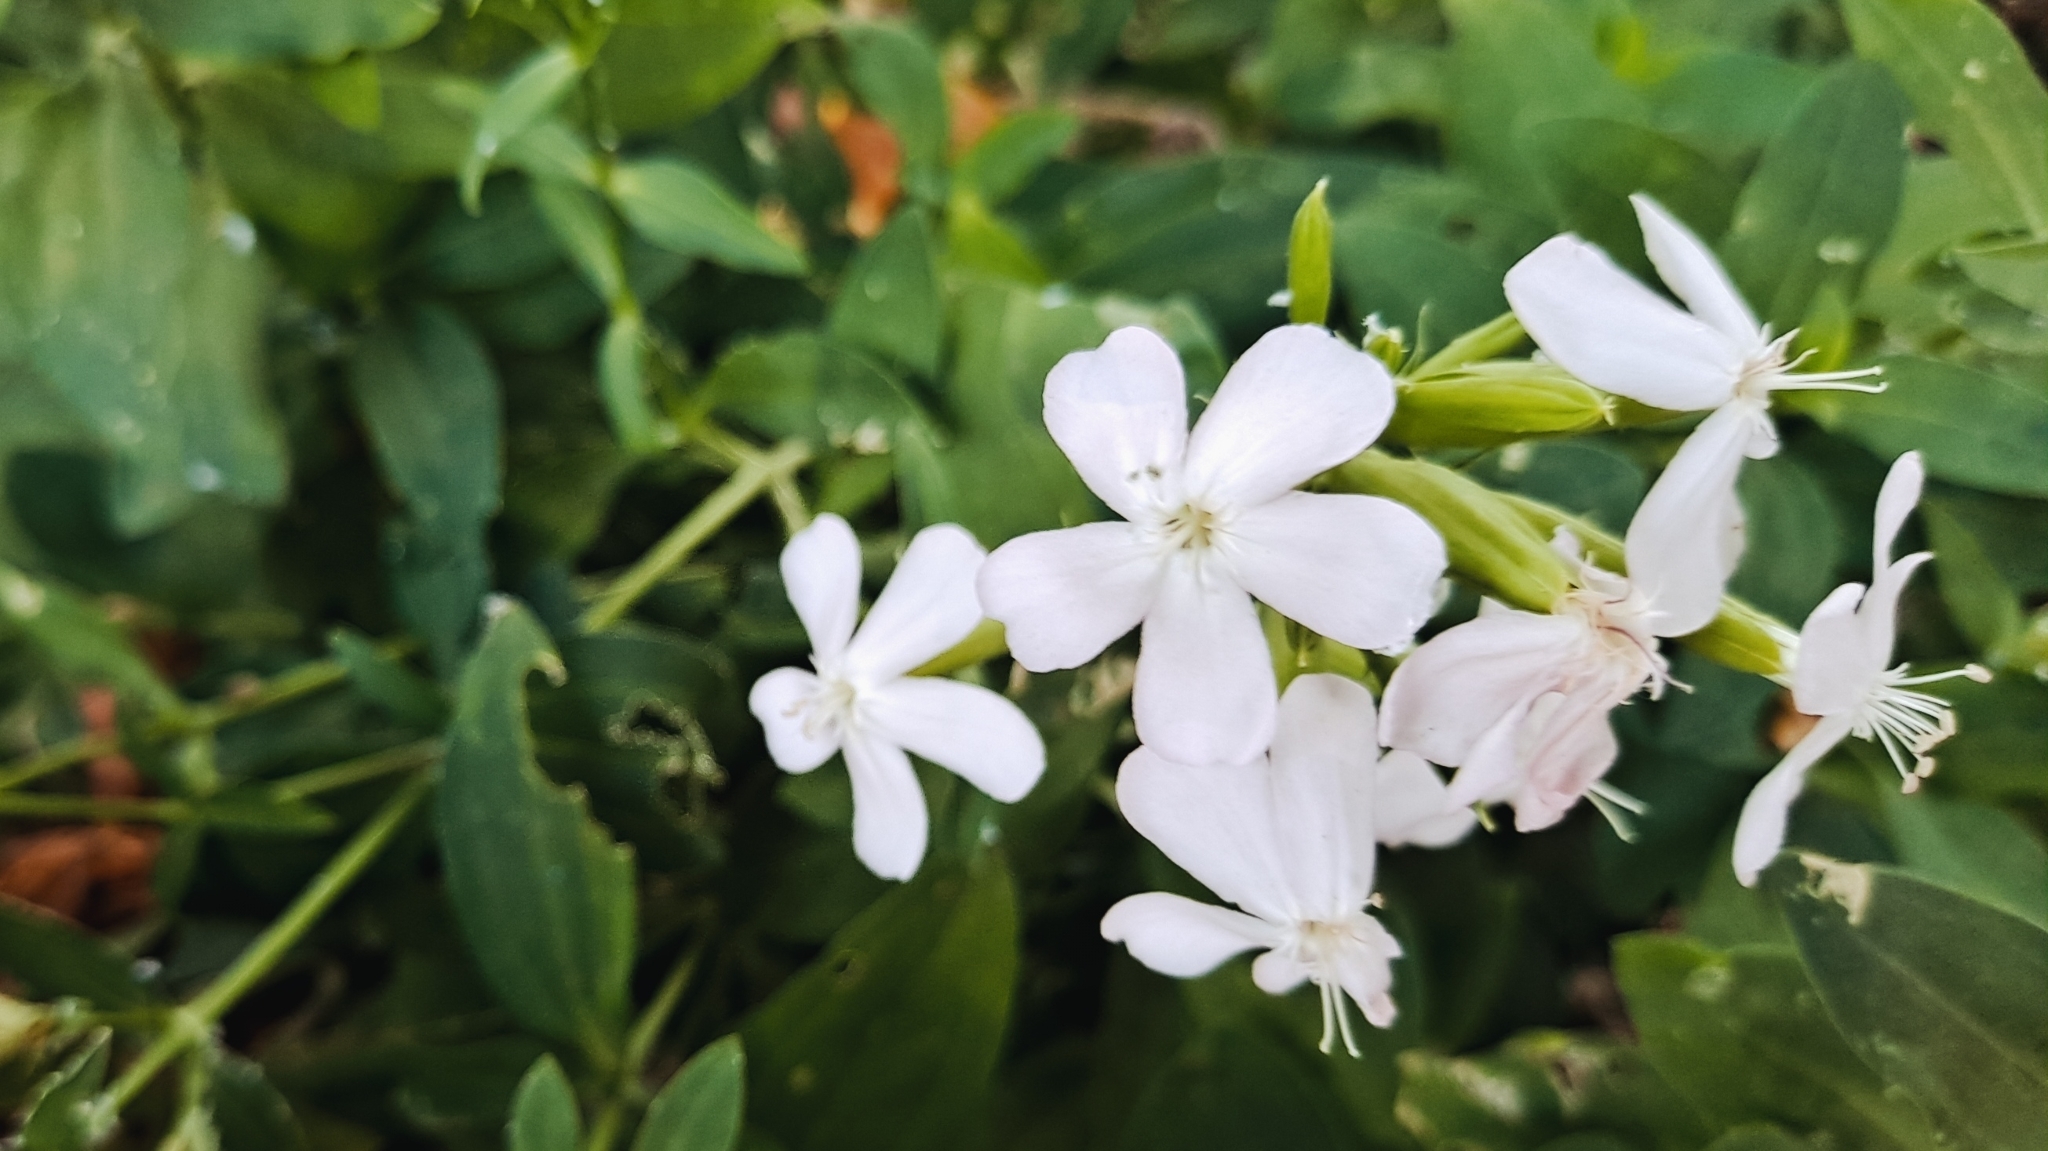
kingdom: Plantae
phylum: Tracheophyta
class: Magnoliopsida
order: Caryophyllales
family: Caryophyllaceae
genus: Saponaria
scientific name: Saponaria officinalis
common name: Soapwort
